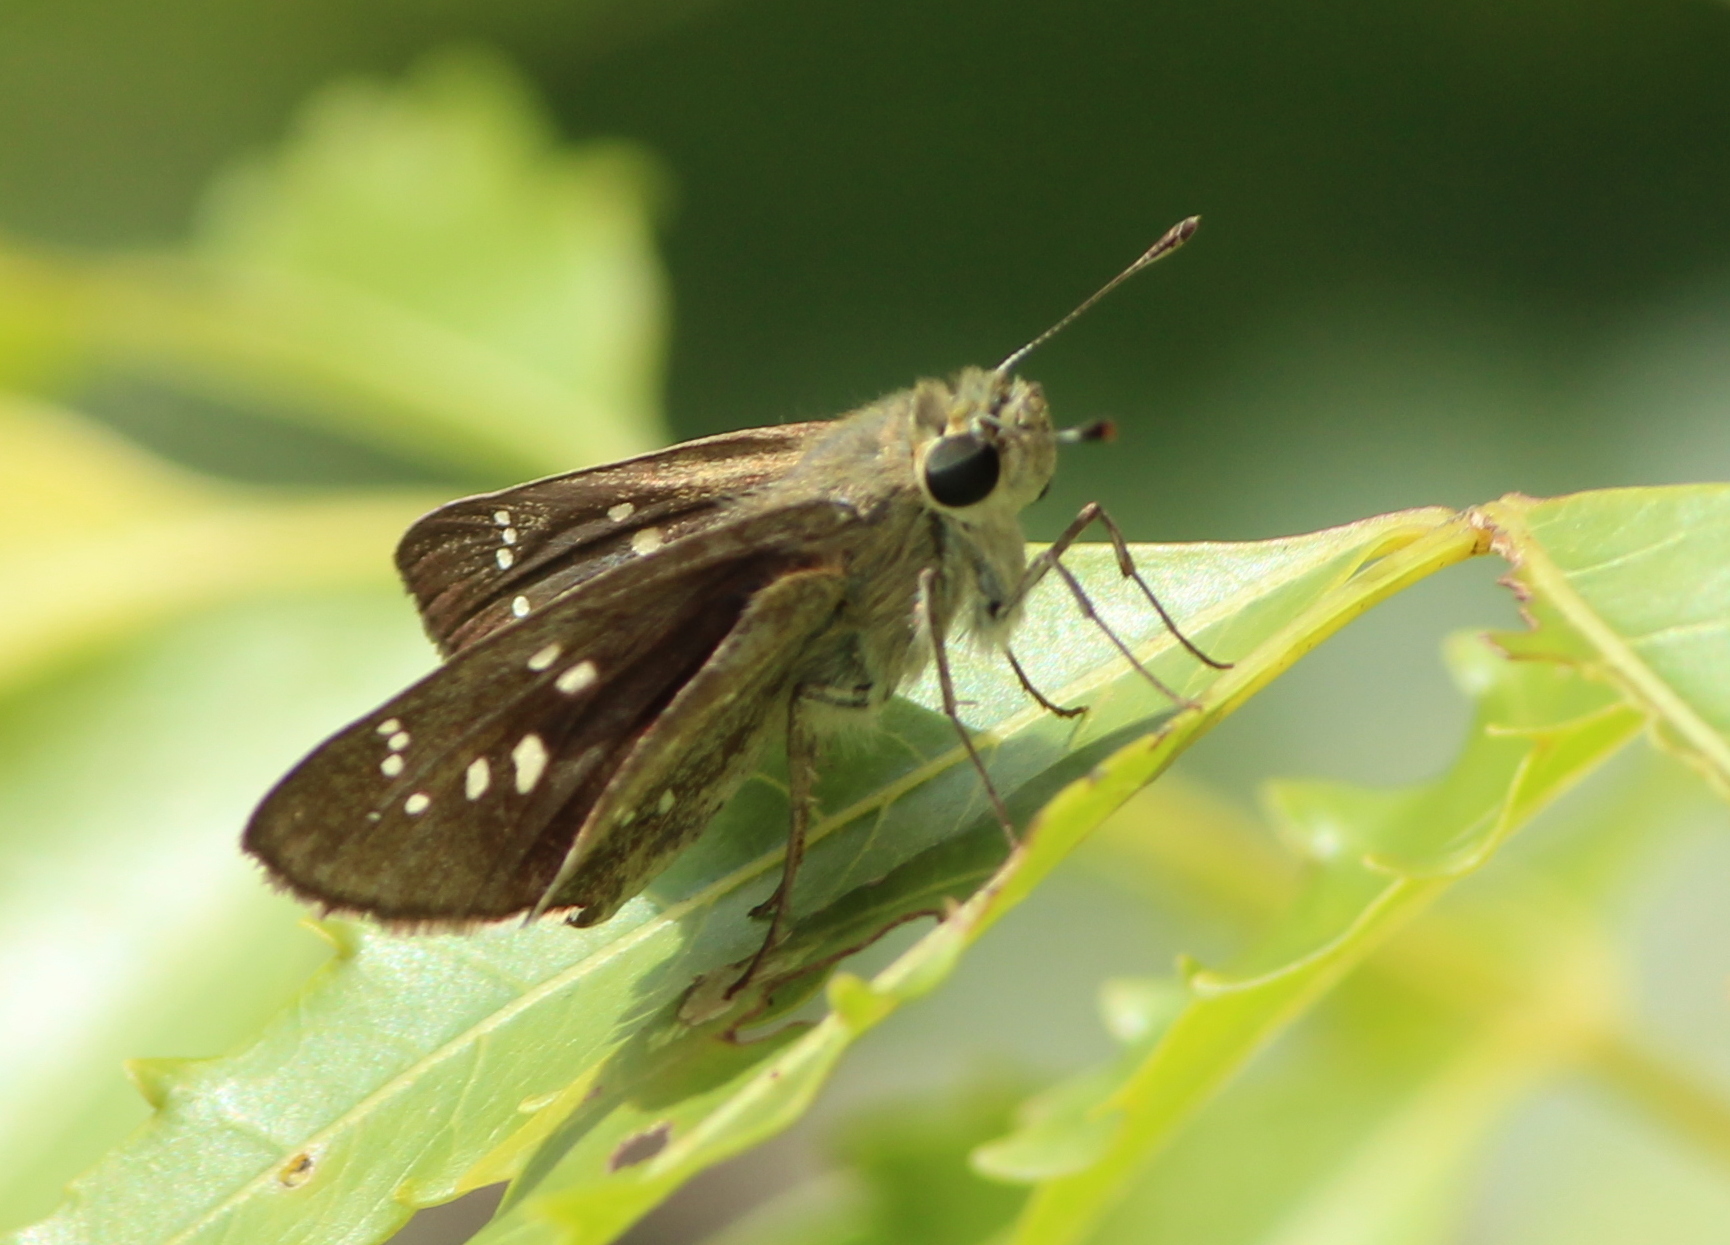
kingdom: Animalia
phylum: Arthropoda
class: Insecta
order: Lepidoptera
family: Hesperiidae
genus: Pelopidas
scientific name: Pelopidas mathias
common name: Black-branded swift
